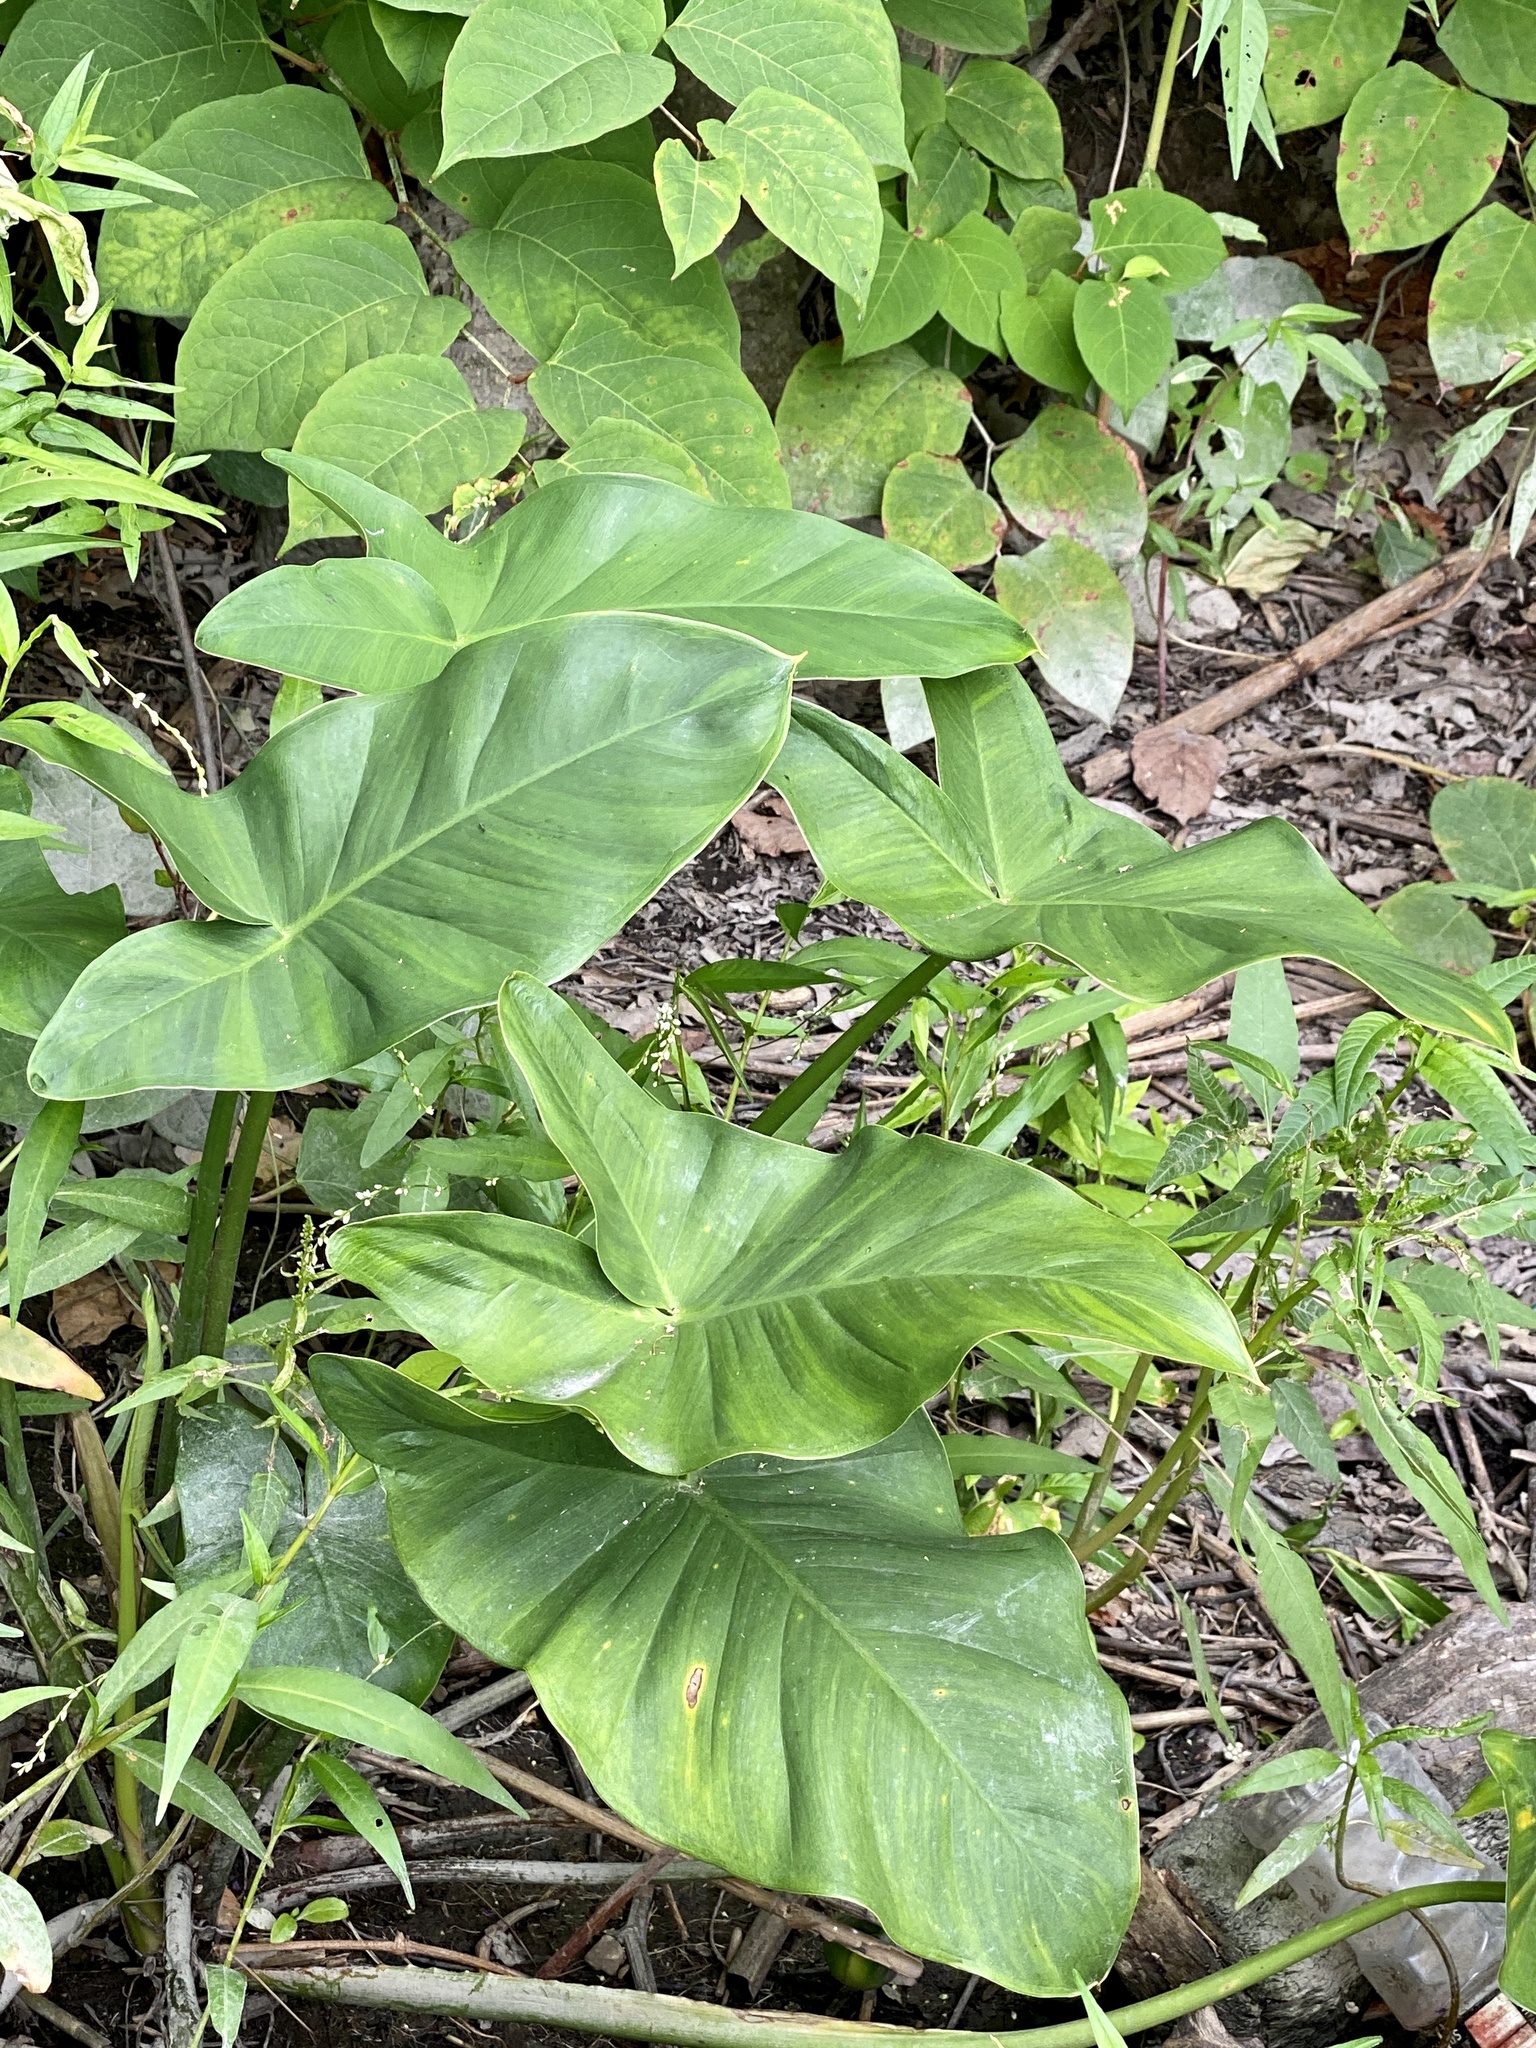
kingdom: Plantae
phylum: Tracheophyta
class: Liliopsida
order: Alismatales
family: Araceae
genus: Peltandra
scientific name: Peltandra virginica
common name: Arrow arum
